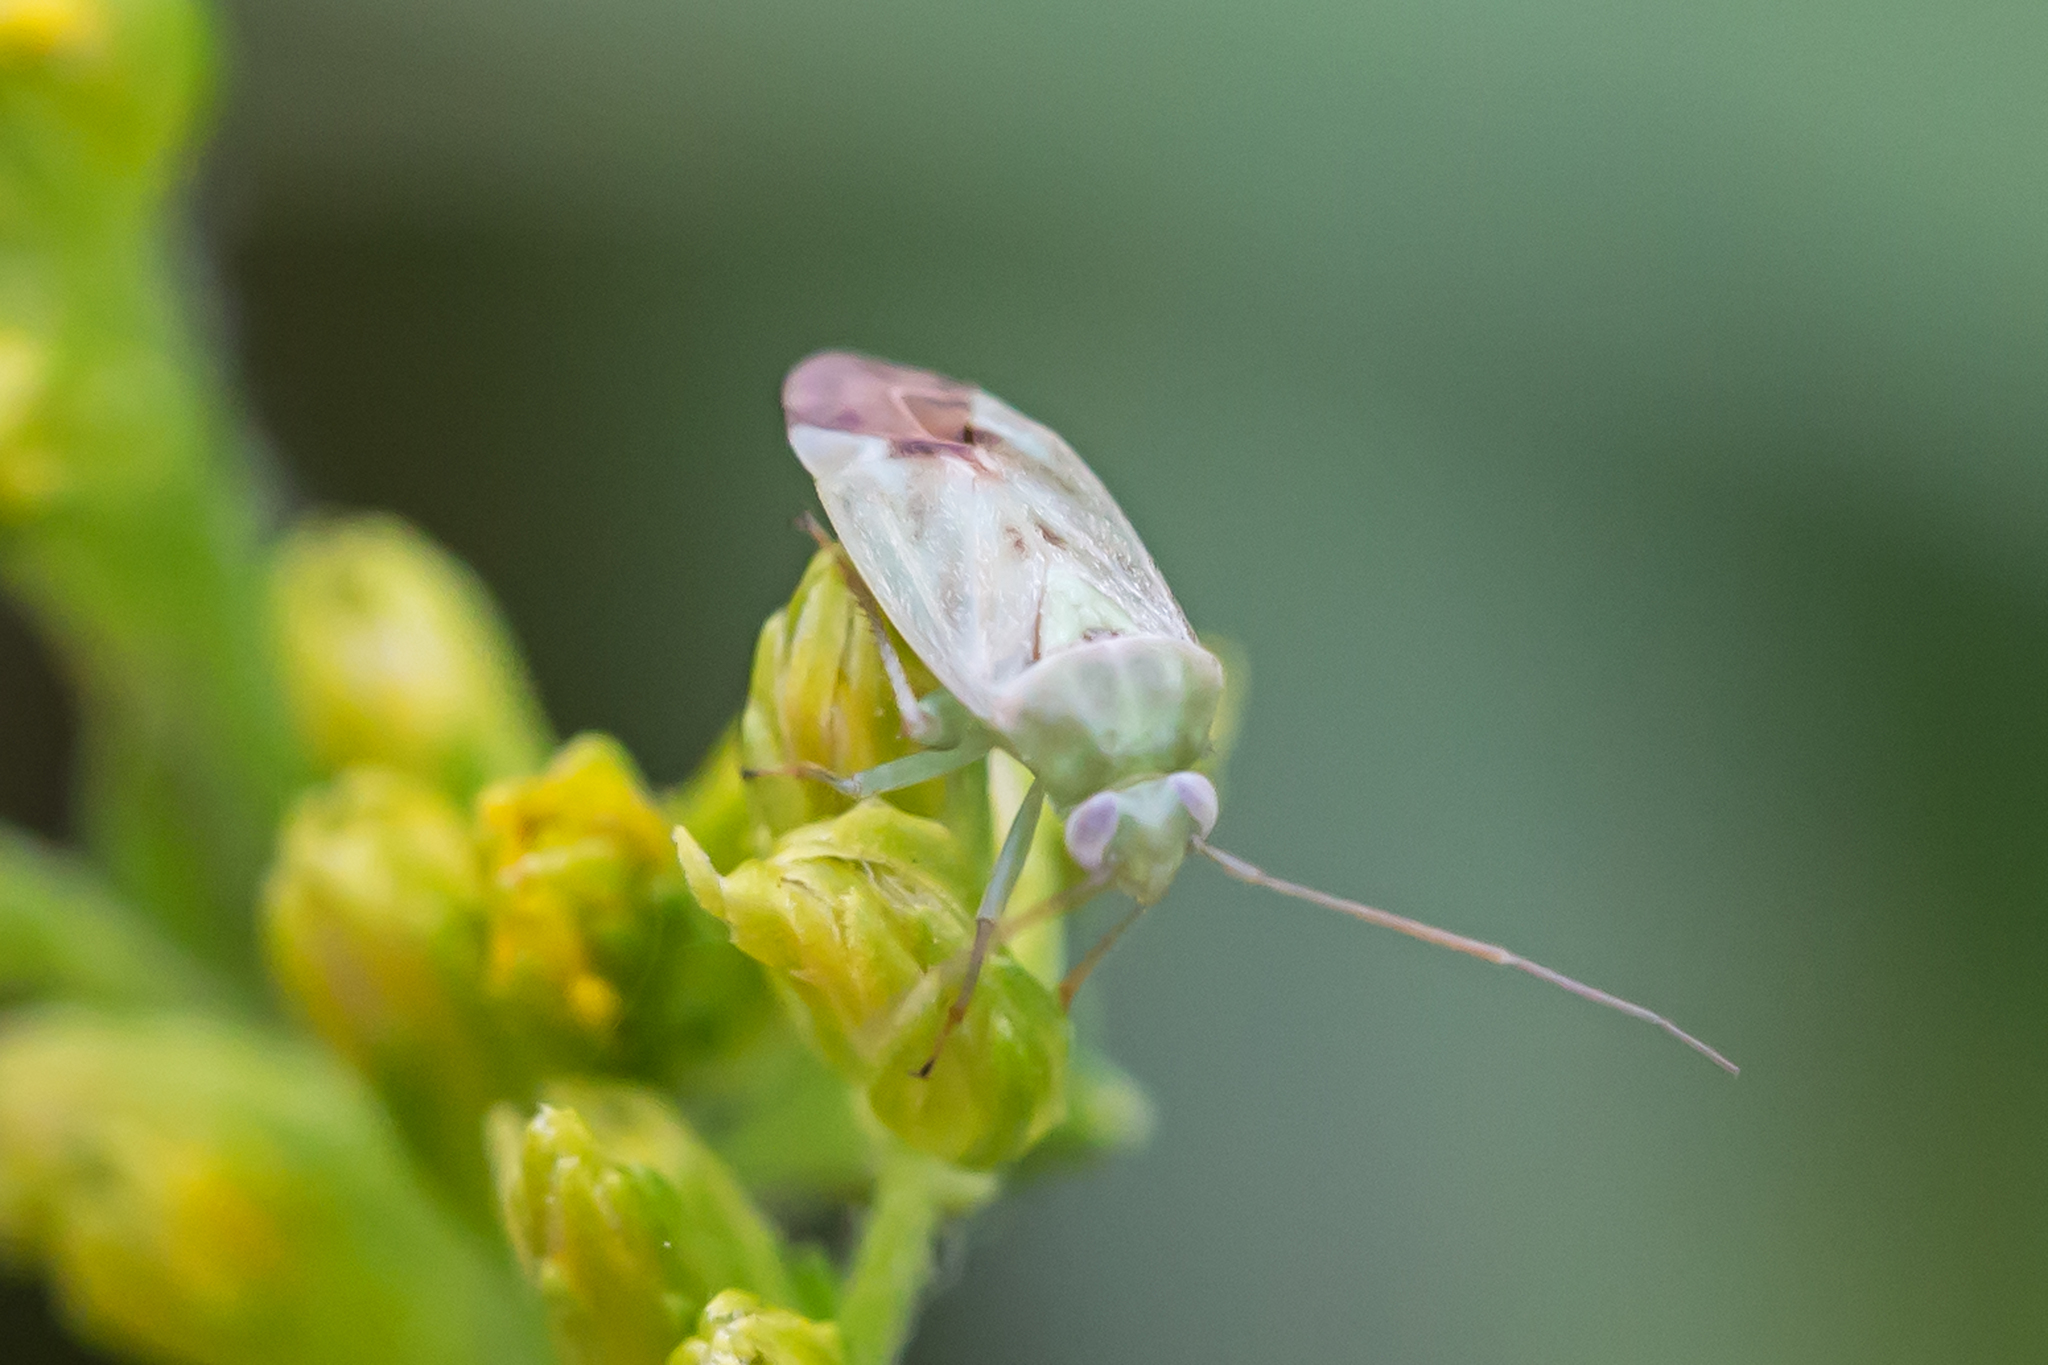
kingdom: Animalia
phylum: Arthropoda
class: Insecta
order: Hemiptera
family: Miridae
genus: Taylorilygus
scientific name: Taylorilygus apicalis
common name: Plant bug
